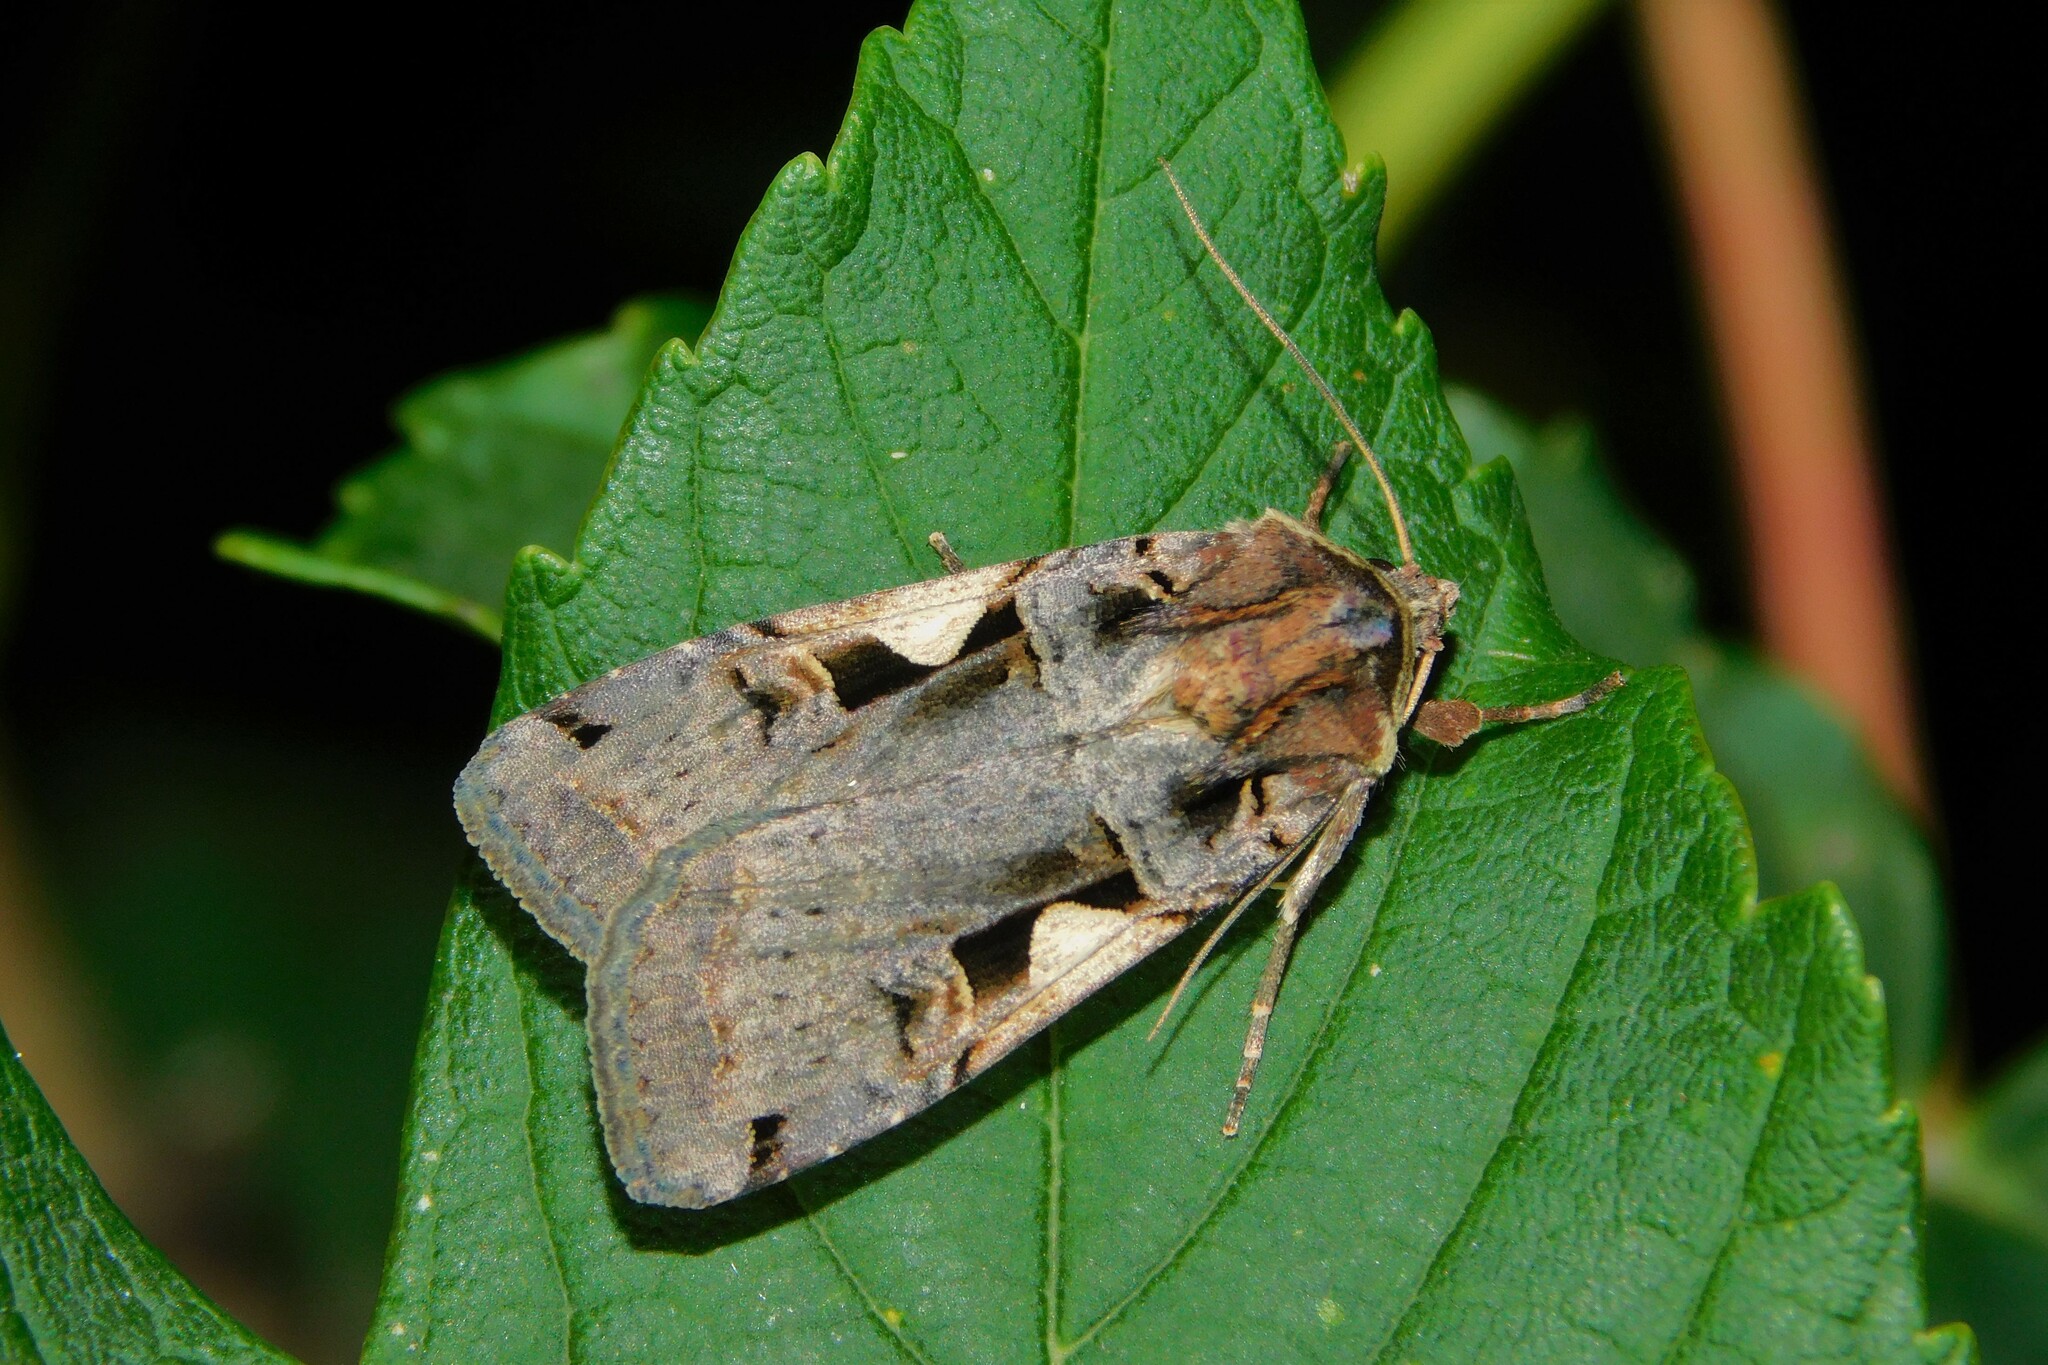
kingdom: Animalia
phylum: Arthropoda
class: Insecta
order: Lepidoptera
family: Noctuidae
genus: Xestia
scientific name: Xestia c-nigrum
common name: Setaceous hebrew character
